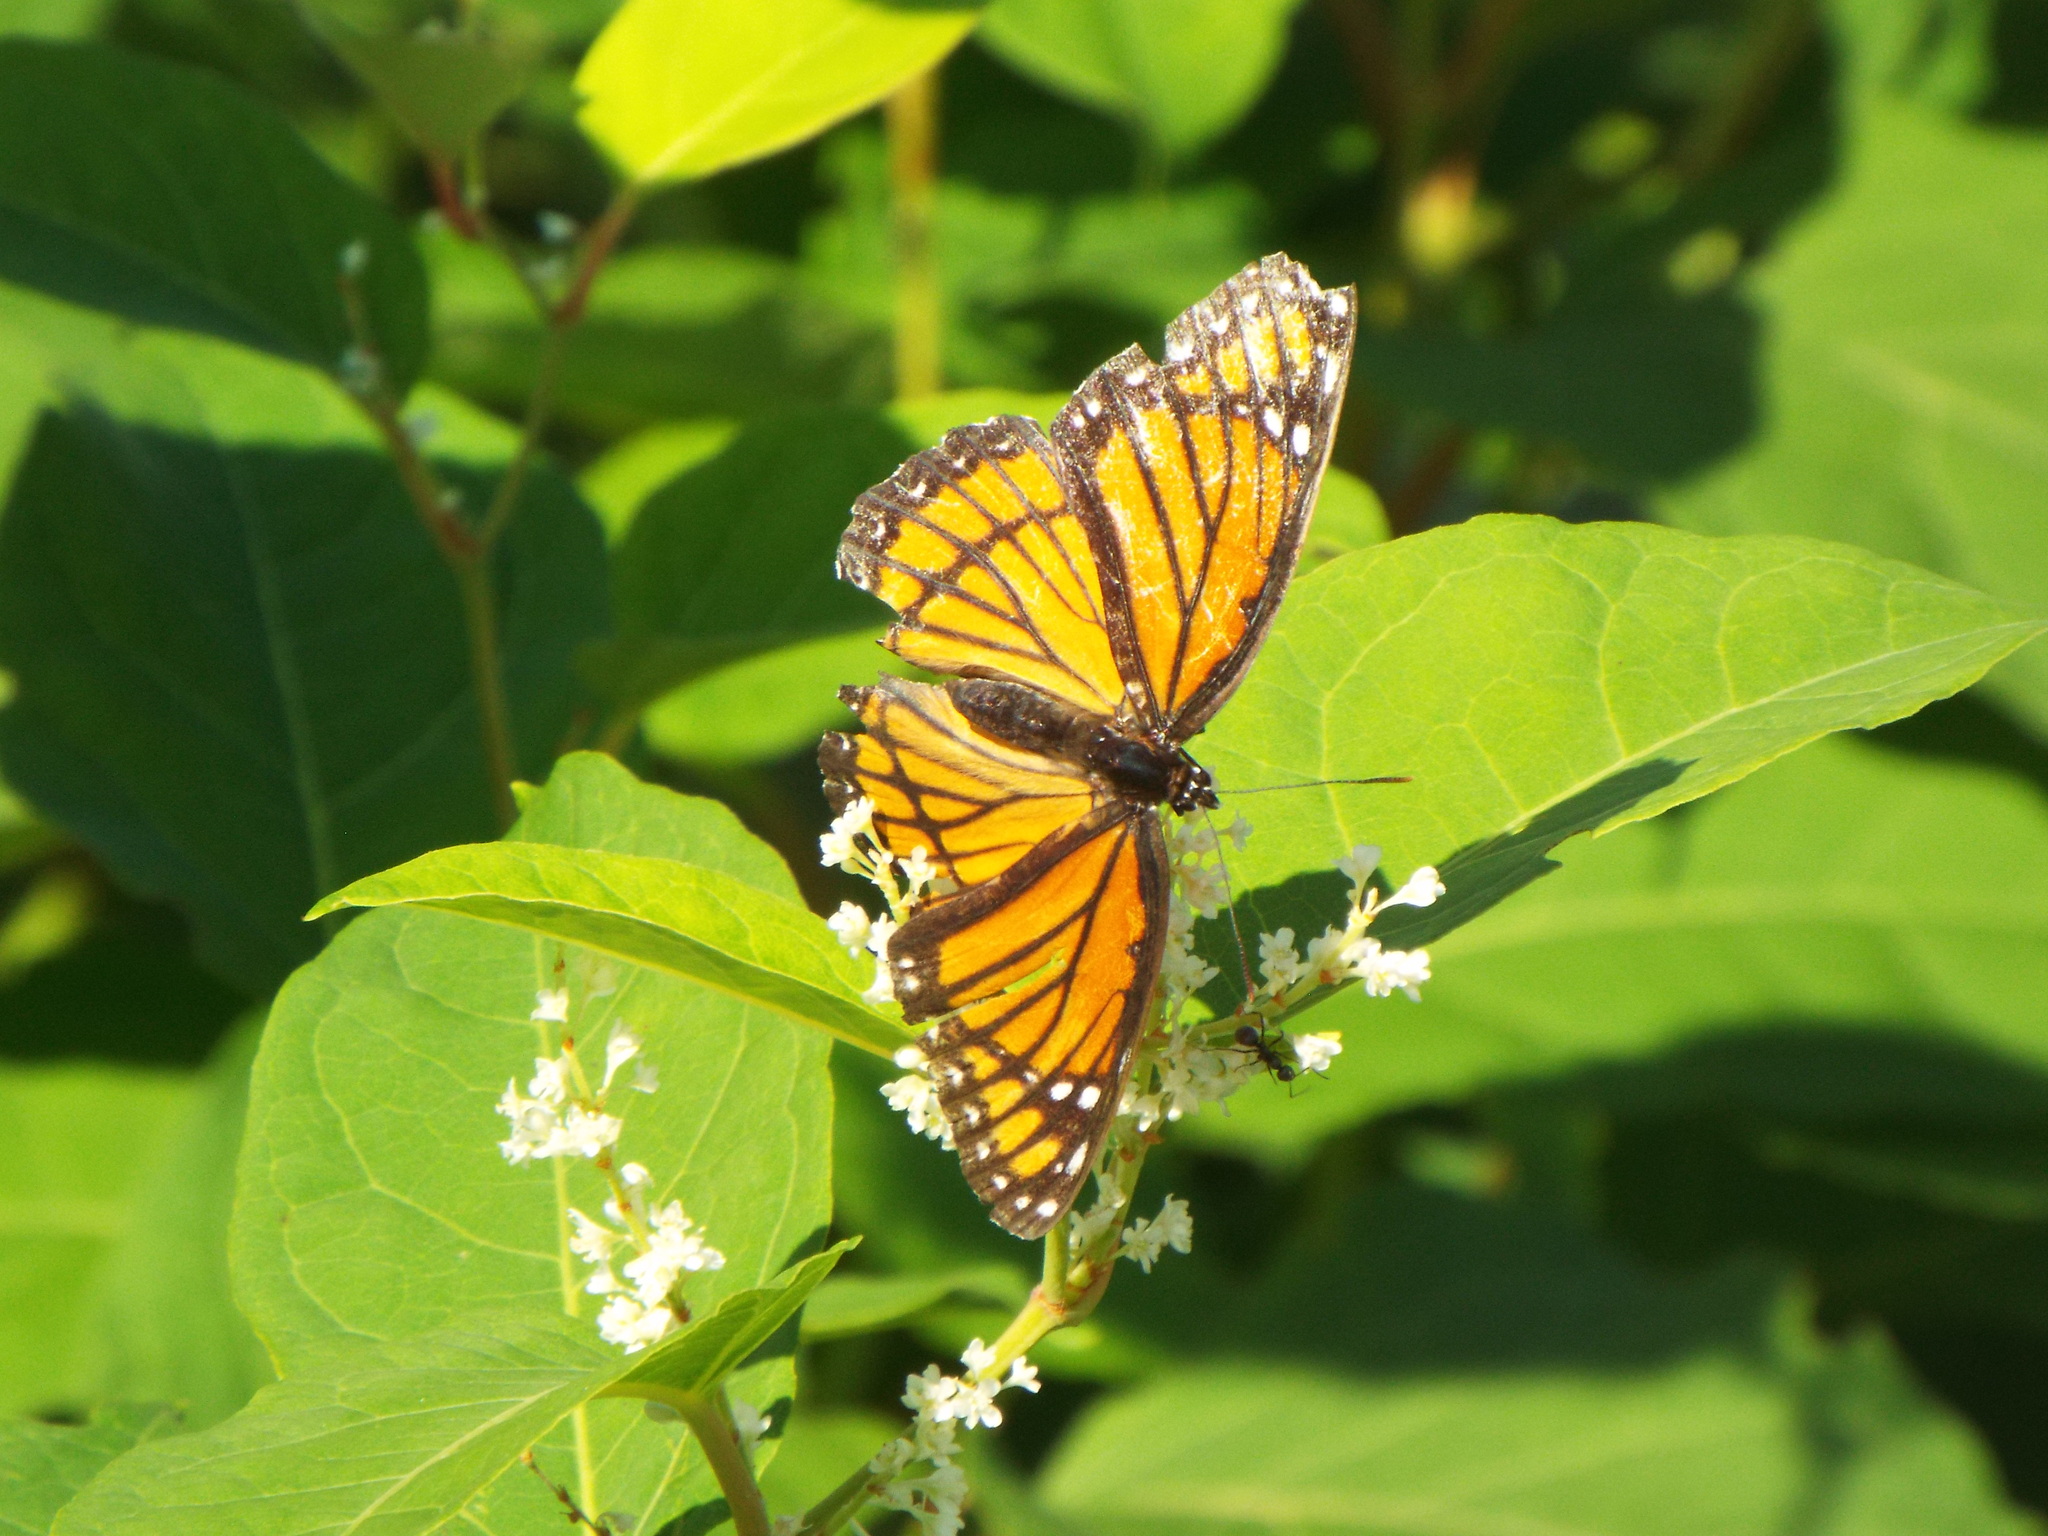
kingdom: Animalia
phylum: Arthropoda
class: Insecta
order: Lepidoptera
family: Nymphalidae
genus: Limenitis
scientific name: Limenitis archippus
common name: Viceroy
